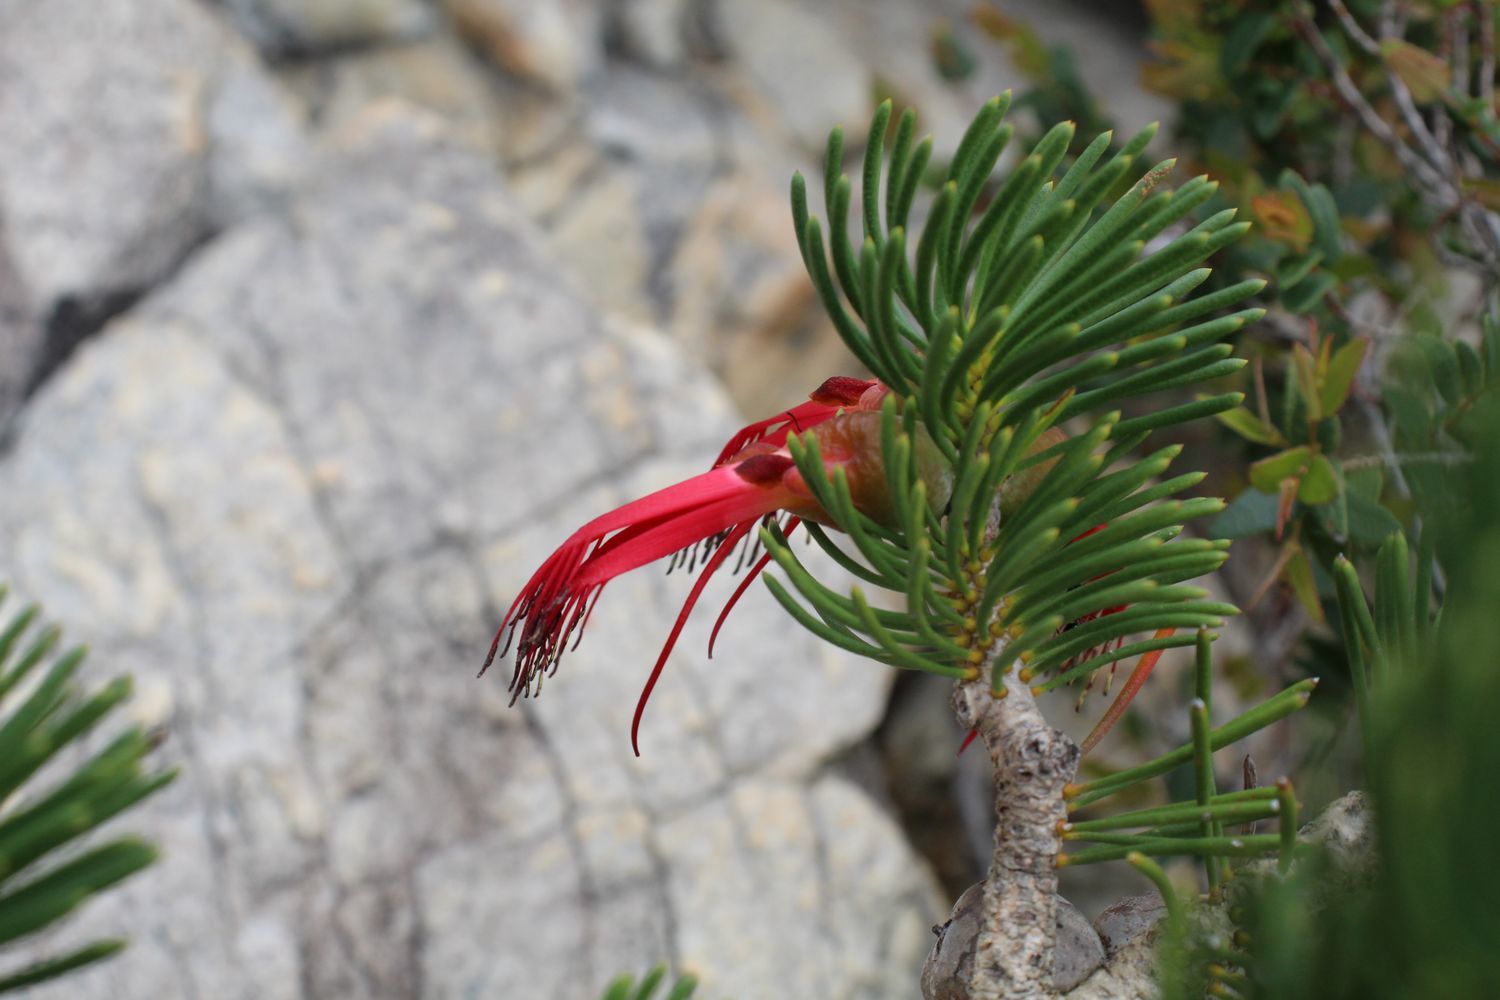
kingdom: Plantae
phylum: Tracheophyta
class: Magnoliopsida
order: Myrtales
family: Myrtaceae
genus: Melaleuca
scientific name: Melaleuca valida
